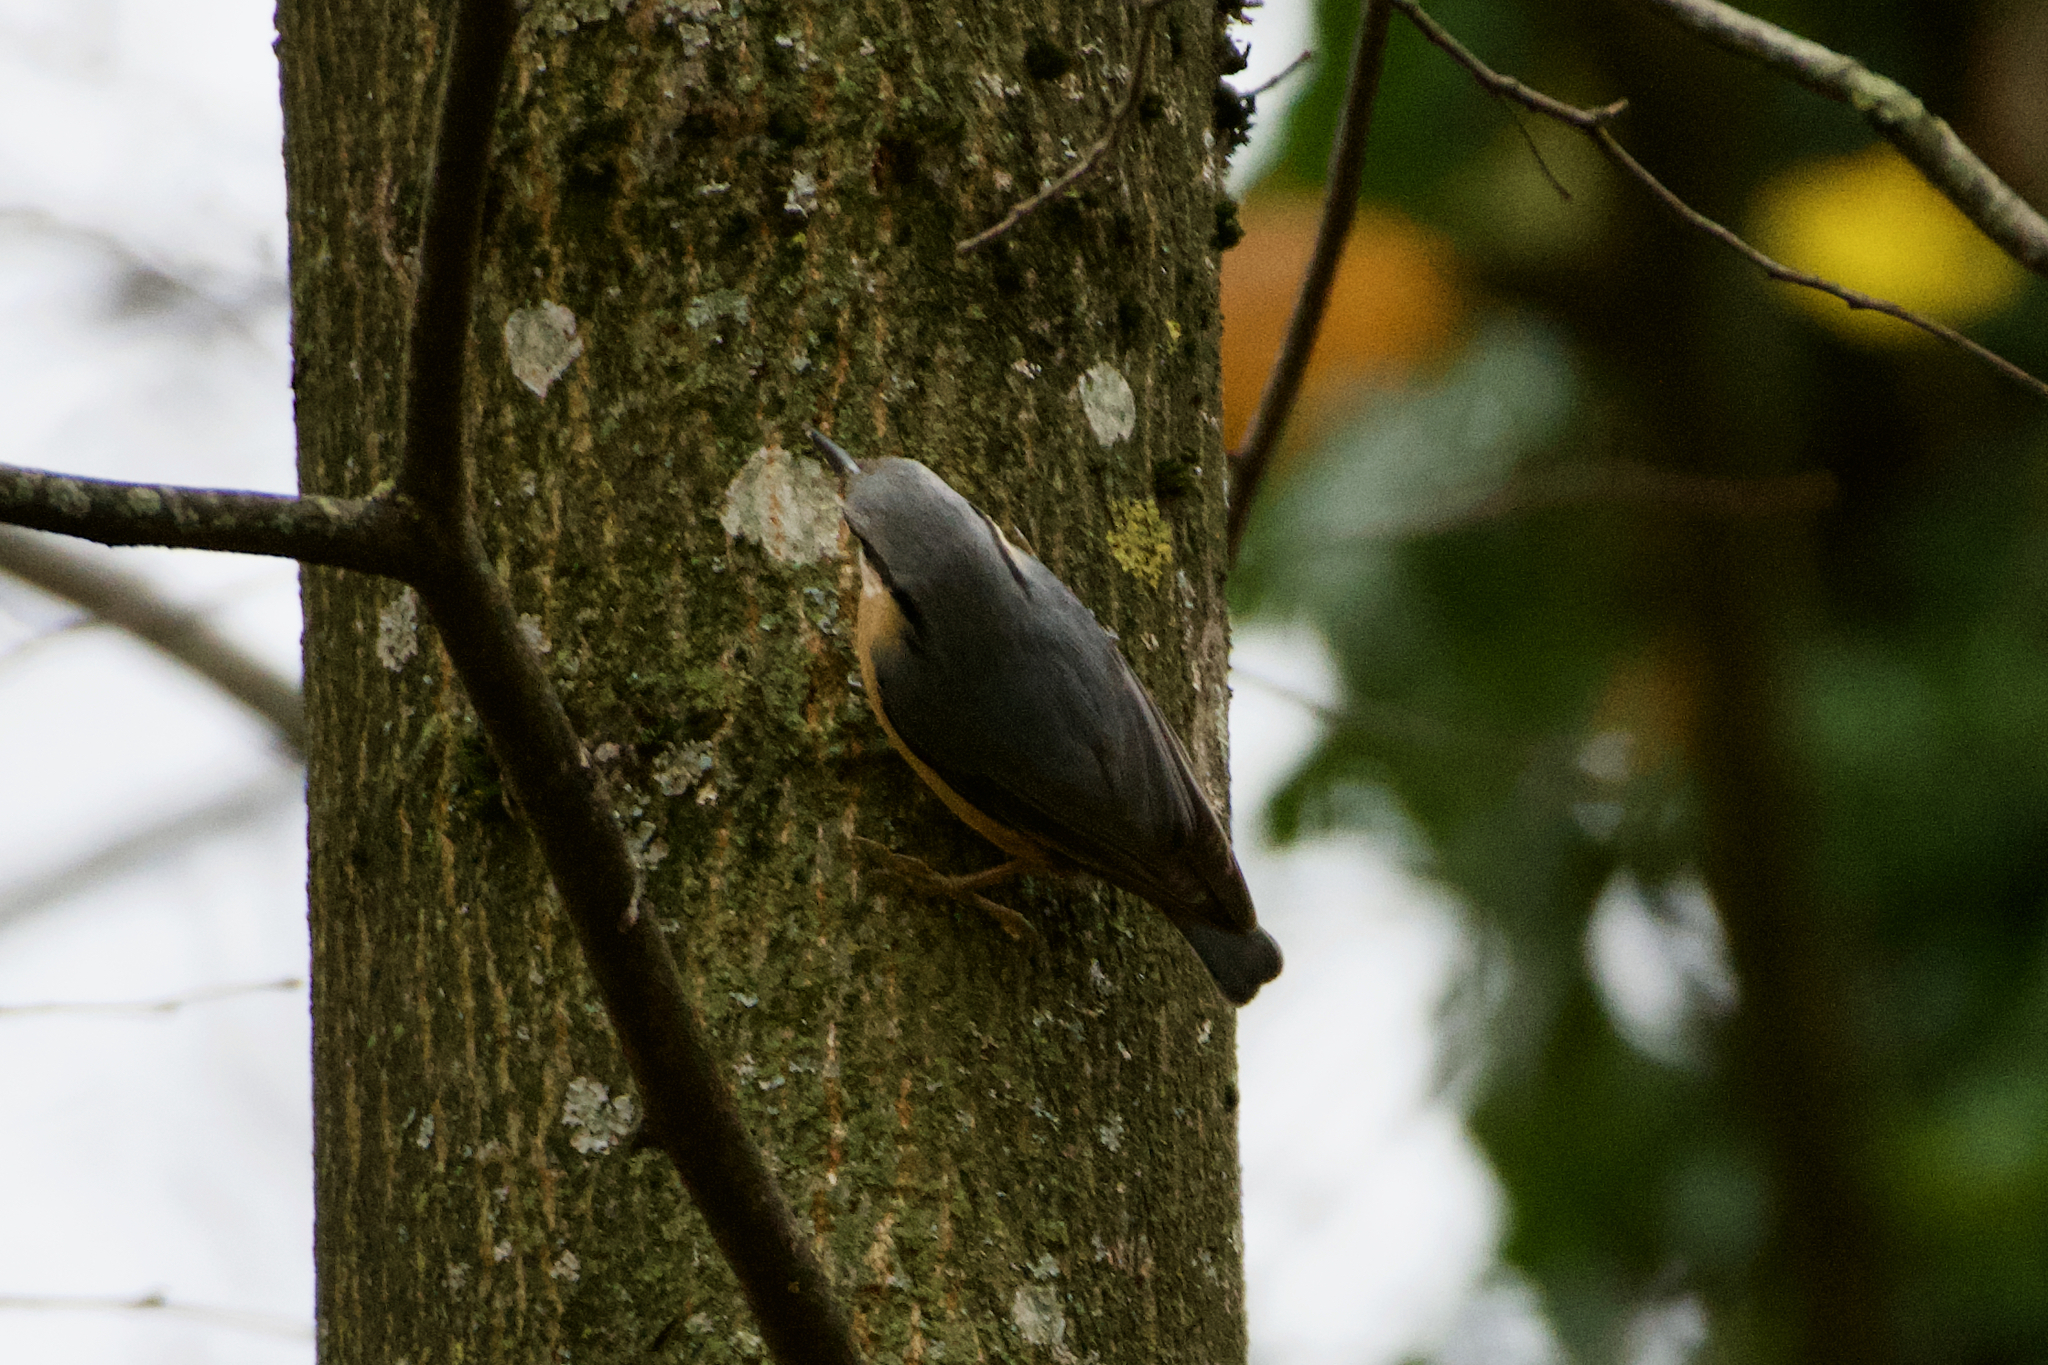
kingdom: Animalia
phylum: Chordata
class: Aves
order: Passeriformes
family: Sittidae
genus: Sitta
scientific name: Sitta europaea
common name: Eurasian nuthatch
